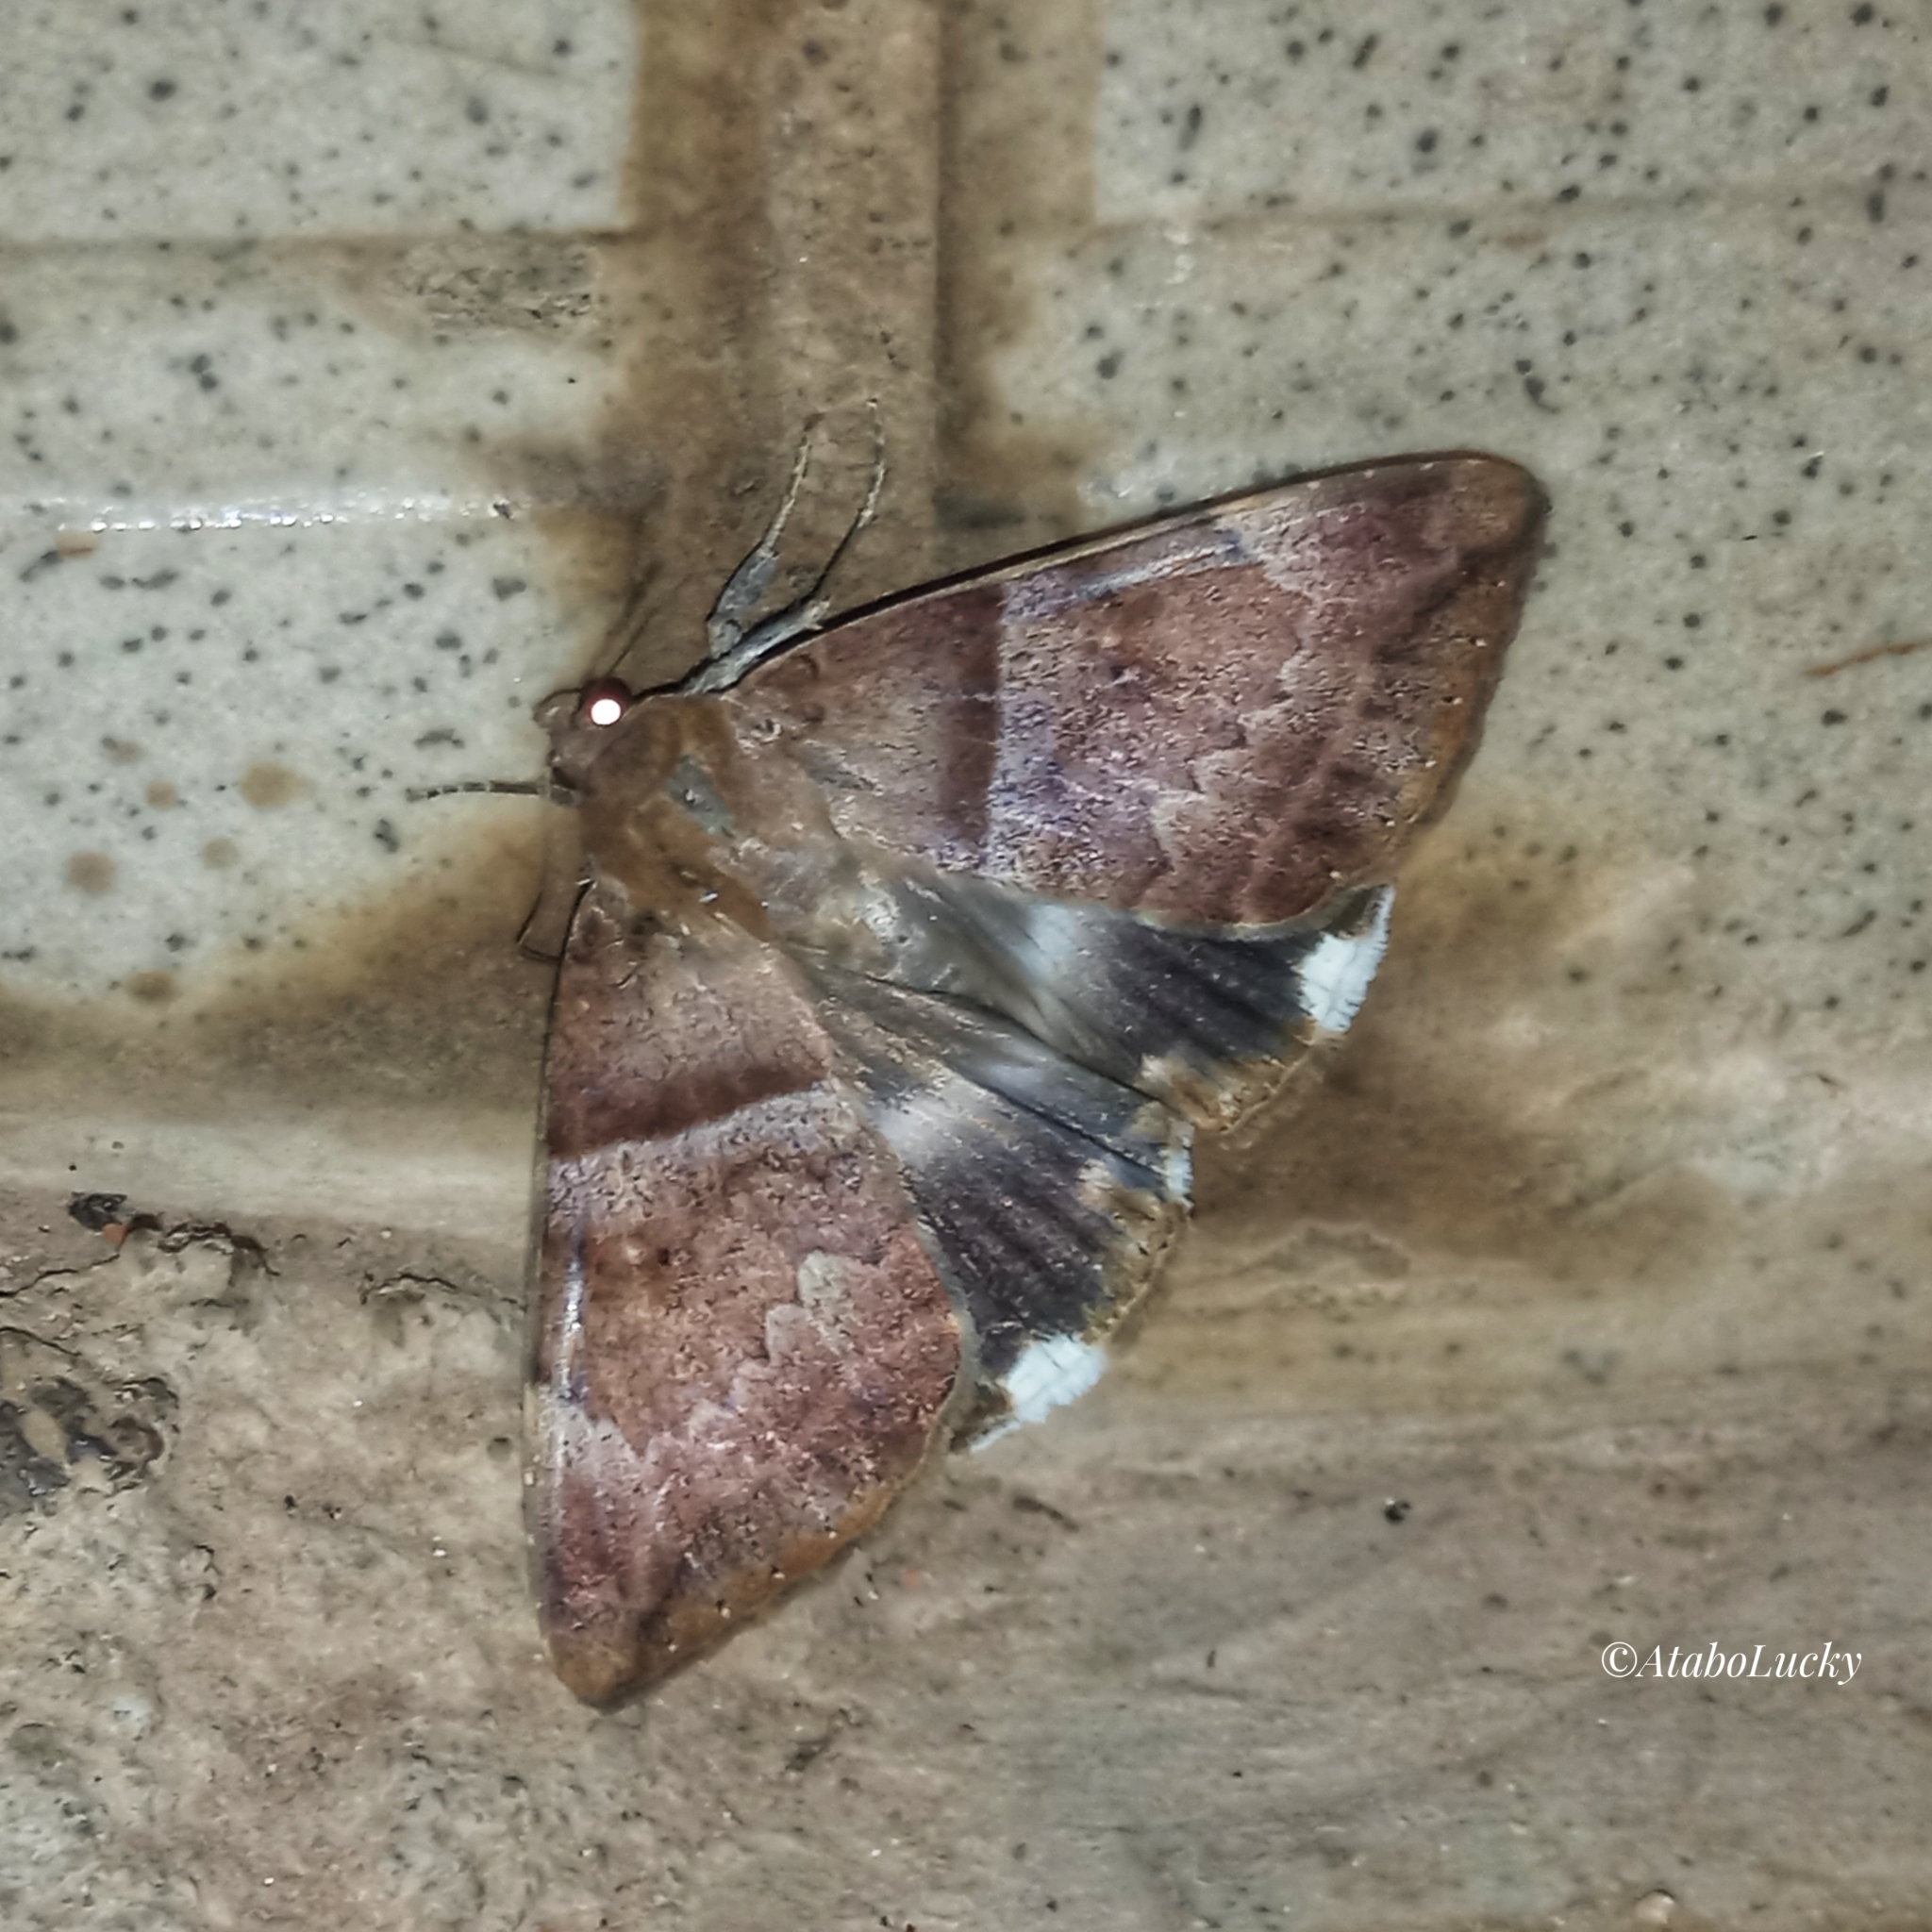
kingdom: Animalia
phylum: Arthropoda
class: Insecta
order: Lepidoptera
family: Erebidae
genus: Achaea
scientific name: Achaea lienardi
